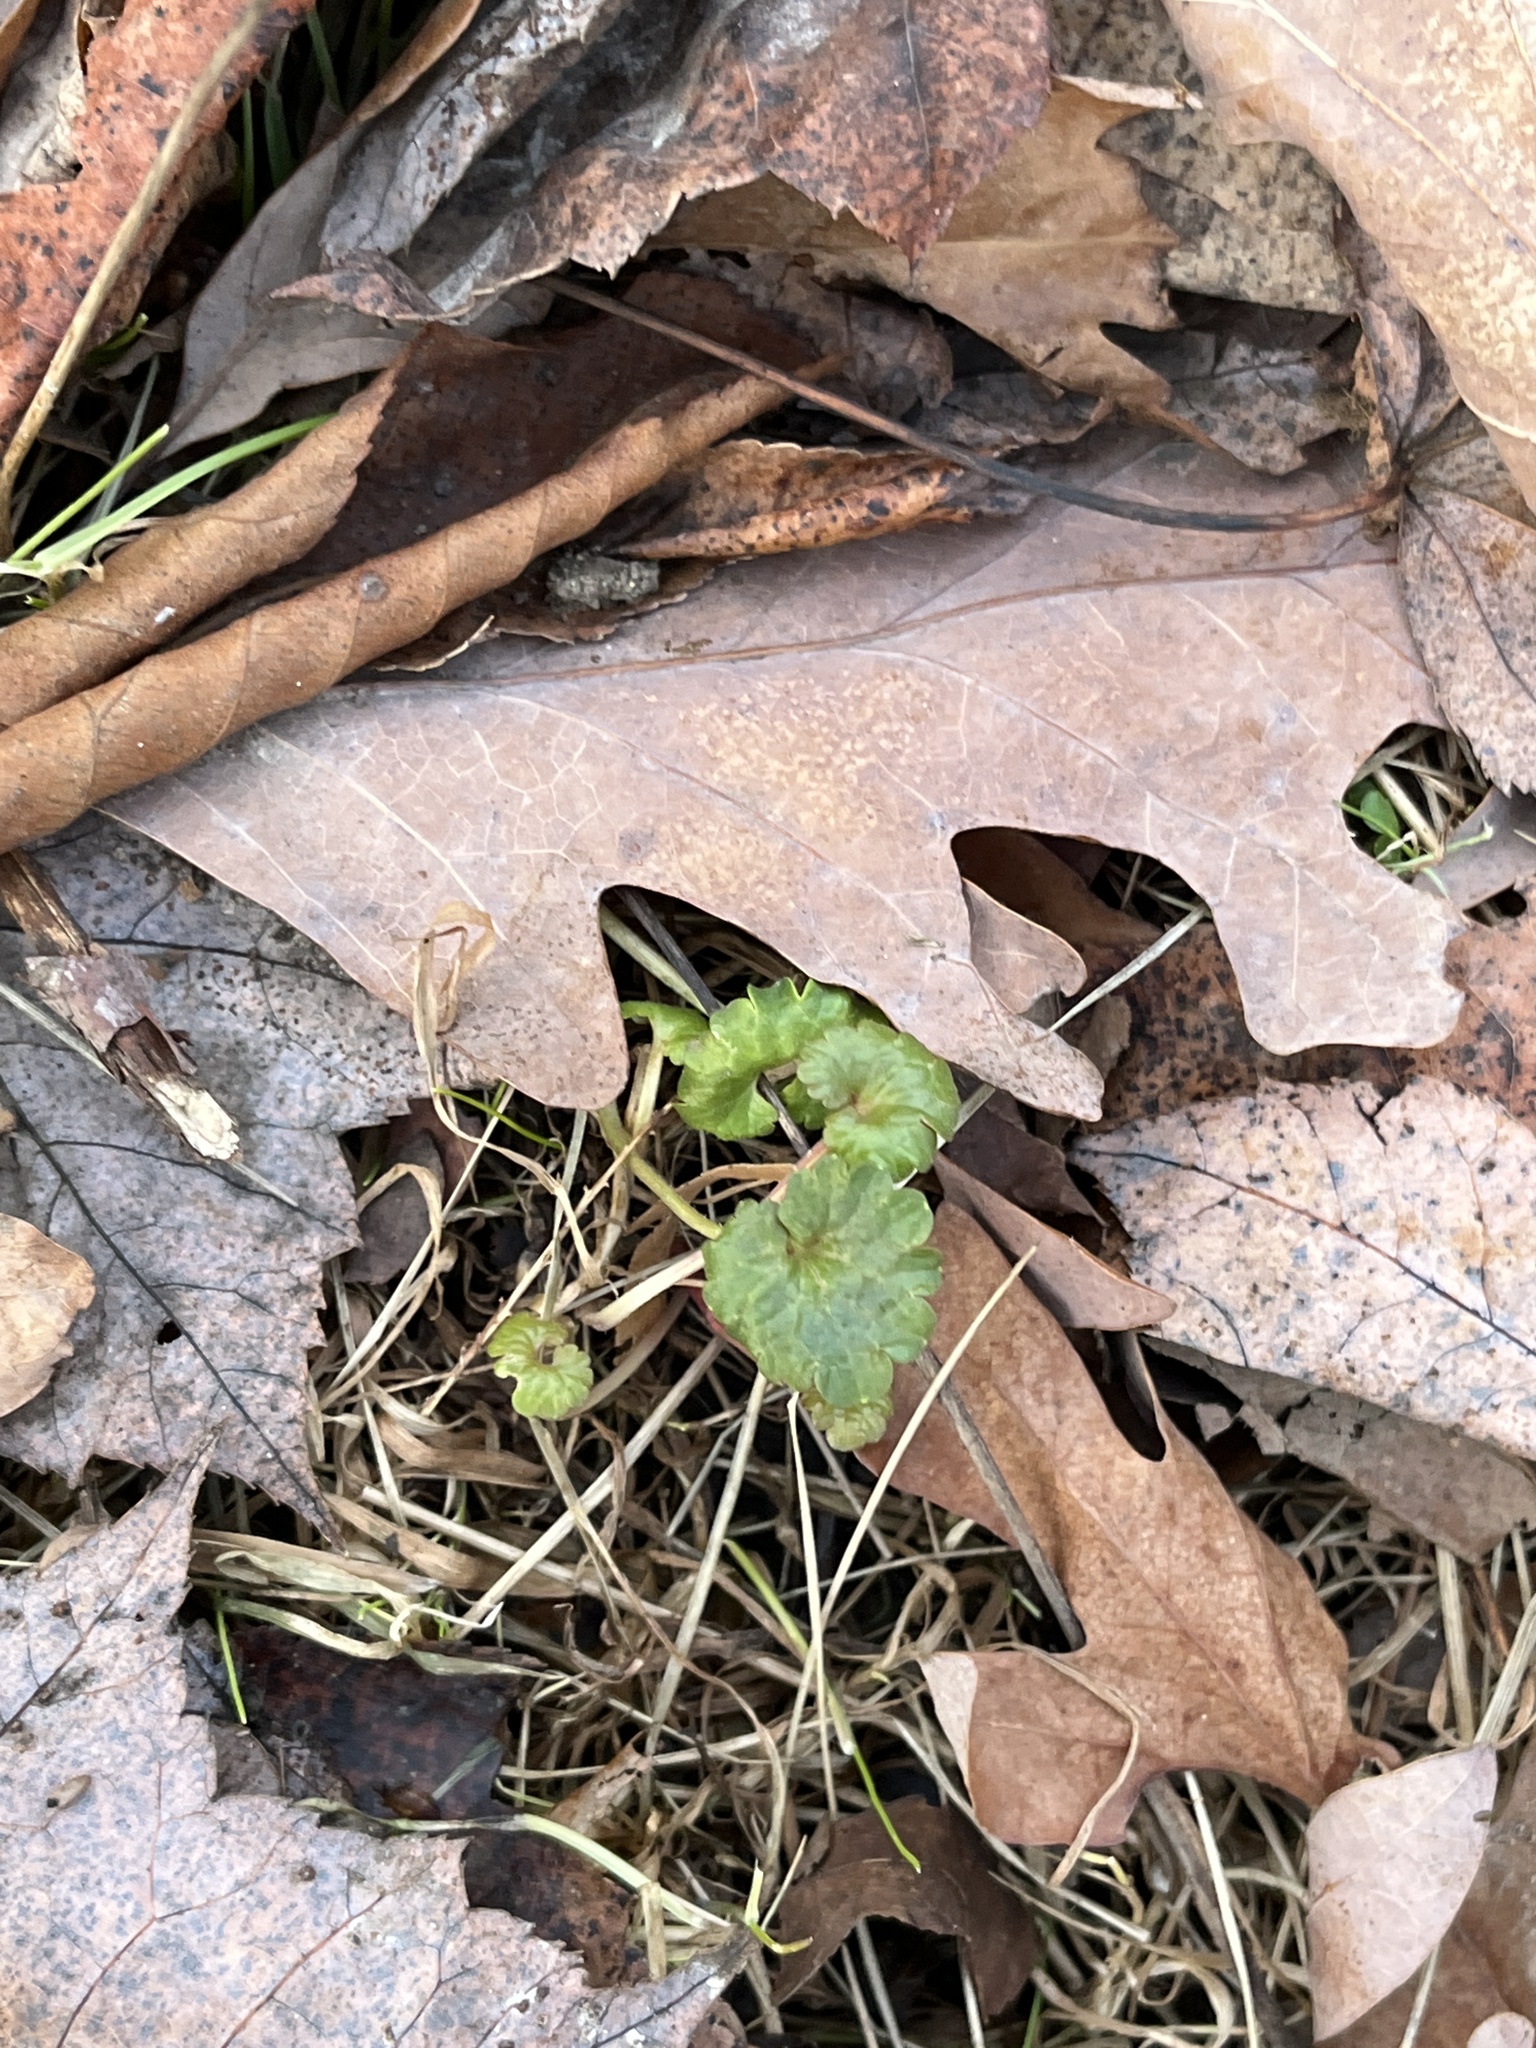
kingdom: Plantae
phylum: Tracheophyta
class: Magnoliopsida
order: Lamiales
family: Lamiaceae
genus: Glechoma
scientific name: Glechoma hederacea
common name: Ground ivy
